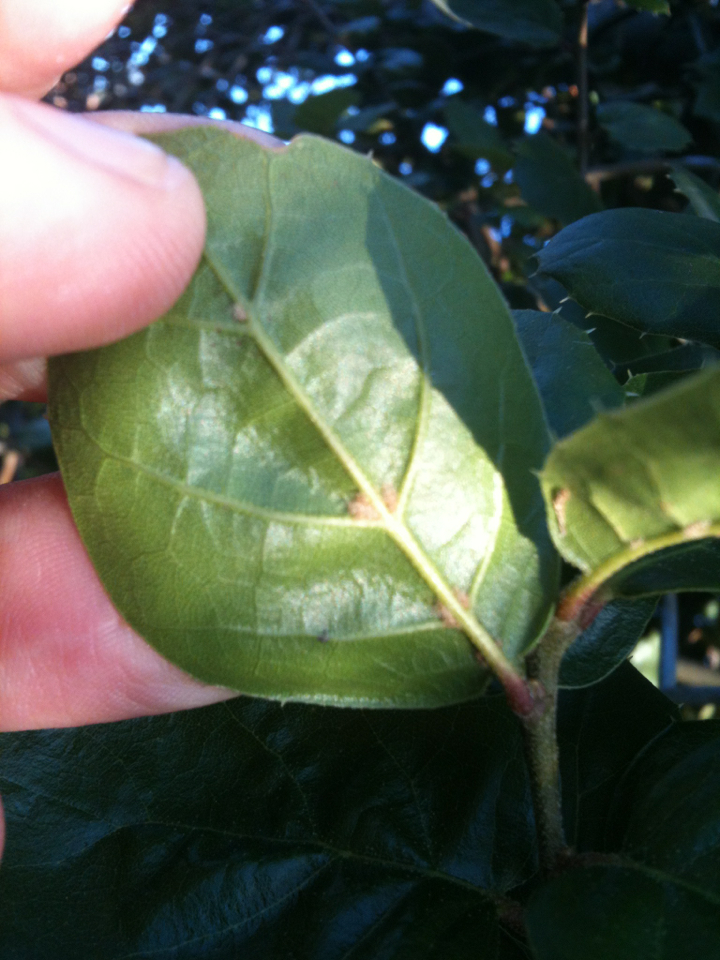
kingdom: Plantae
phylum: Tracheophyta
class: Magnoliopsida
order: Fagales
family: Fagaceae
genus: Quercus
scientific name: Quercus agrifolia
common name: California live oak
